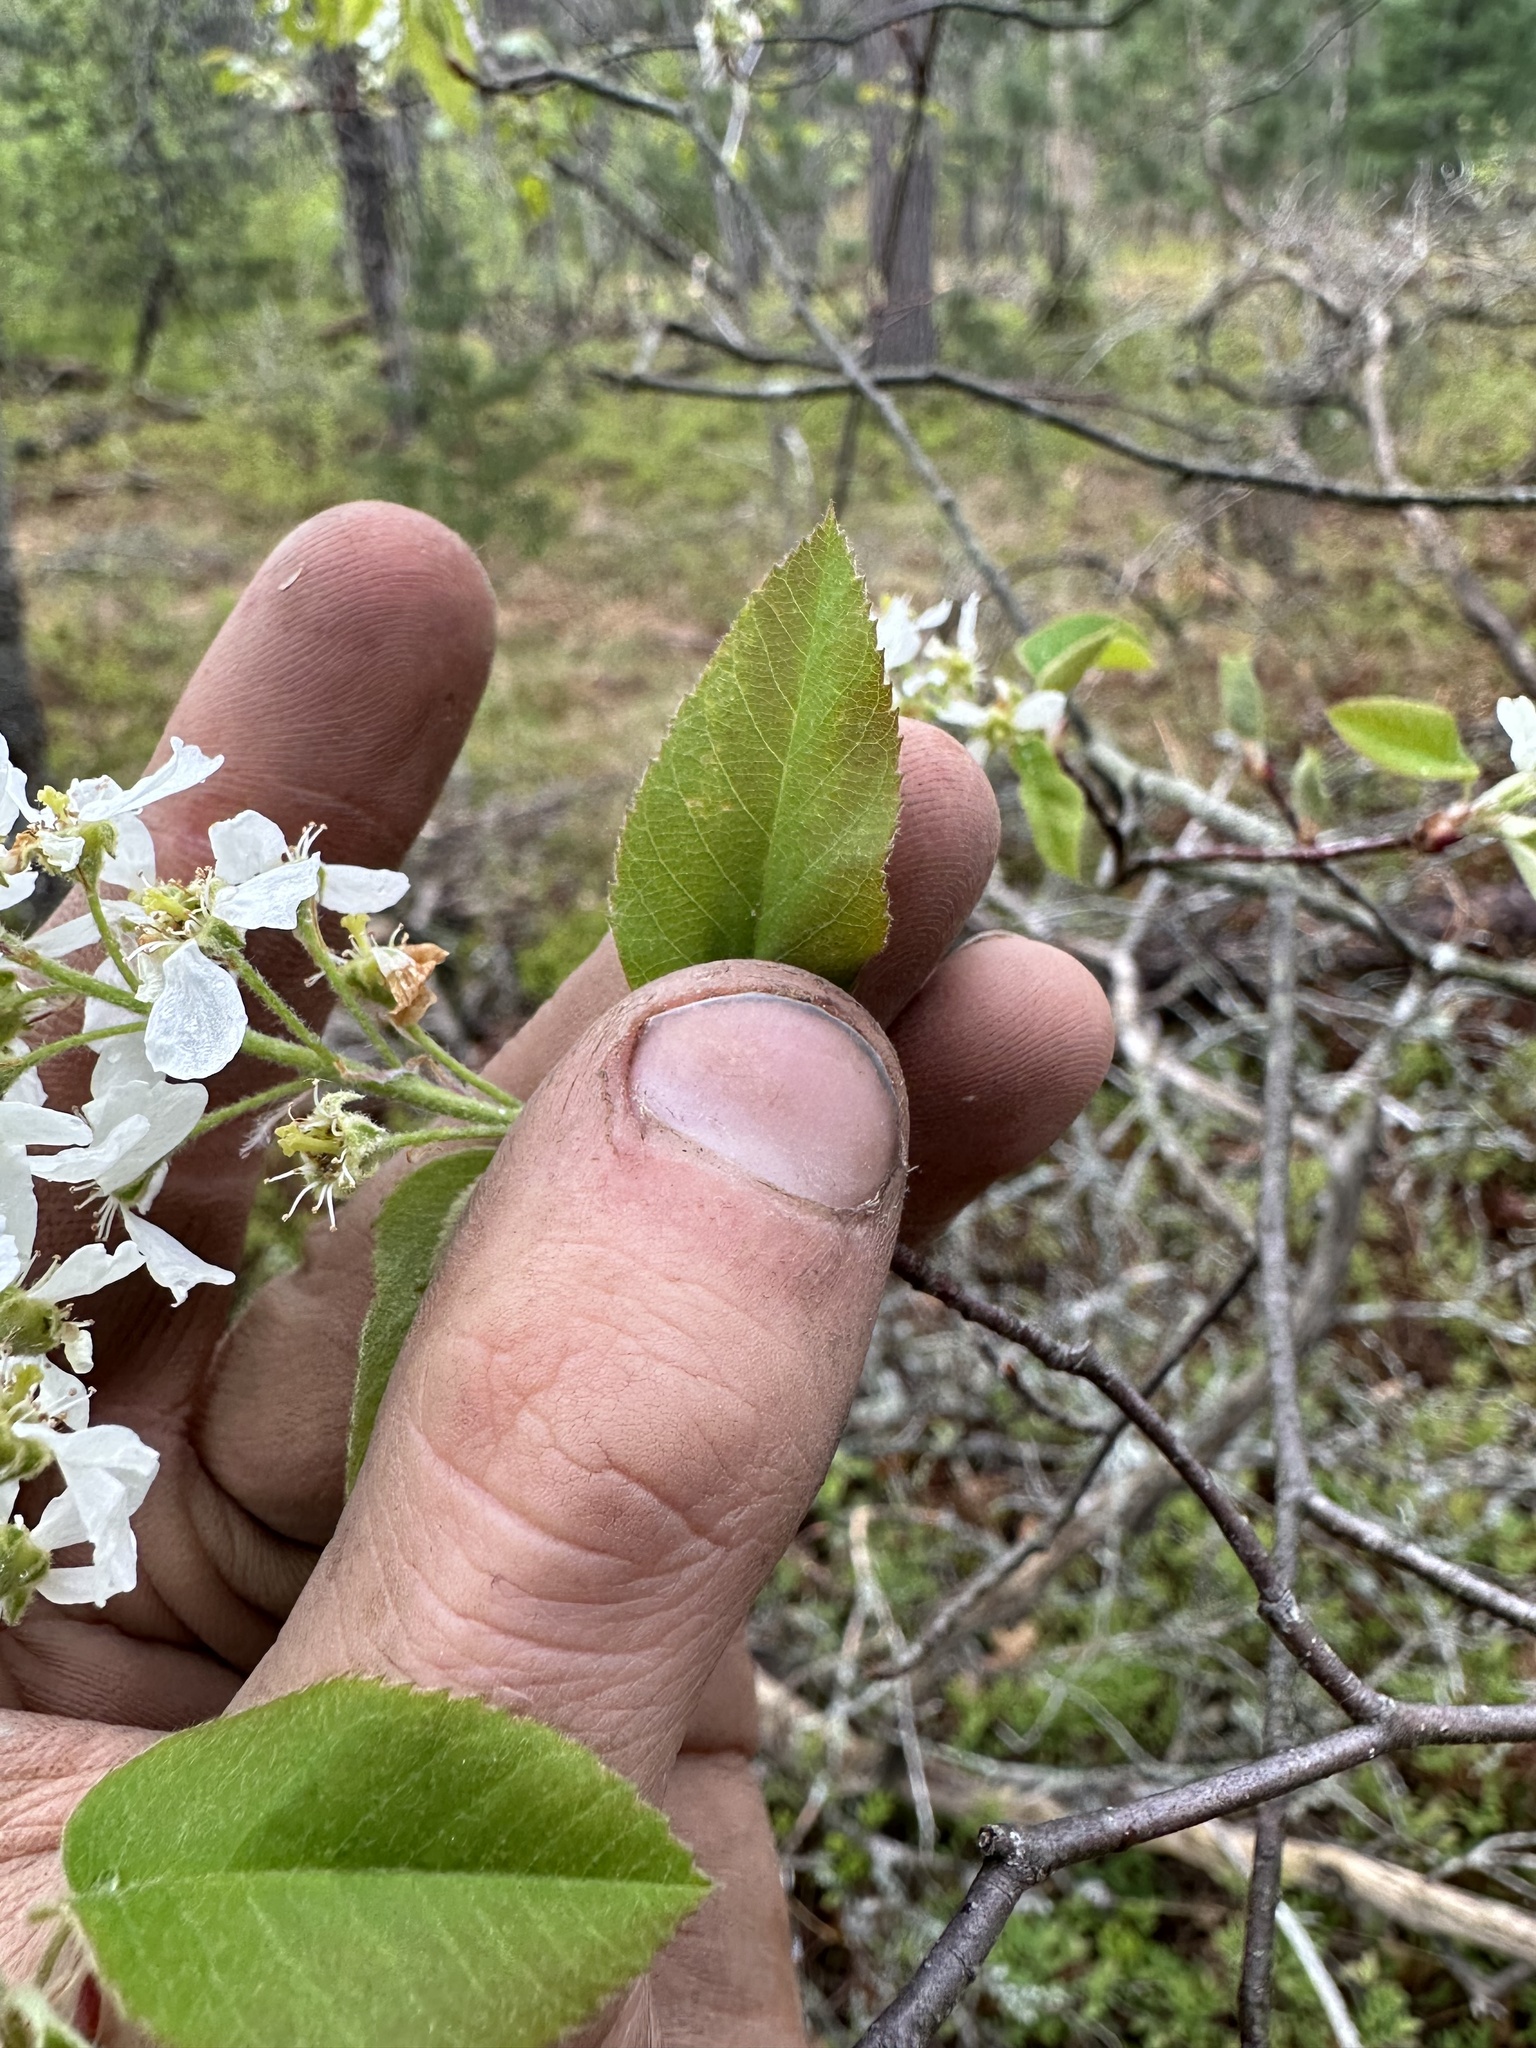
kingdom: Plantae
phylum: Tracheophyta
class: Magnoliopsida
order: Rosales
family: Rosaceae
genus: Amelanchier
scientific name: Amelanchier arborea
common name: Downy serviceberry
